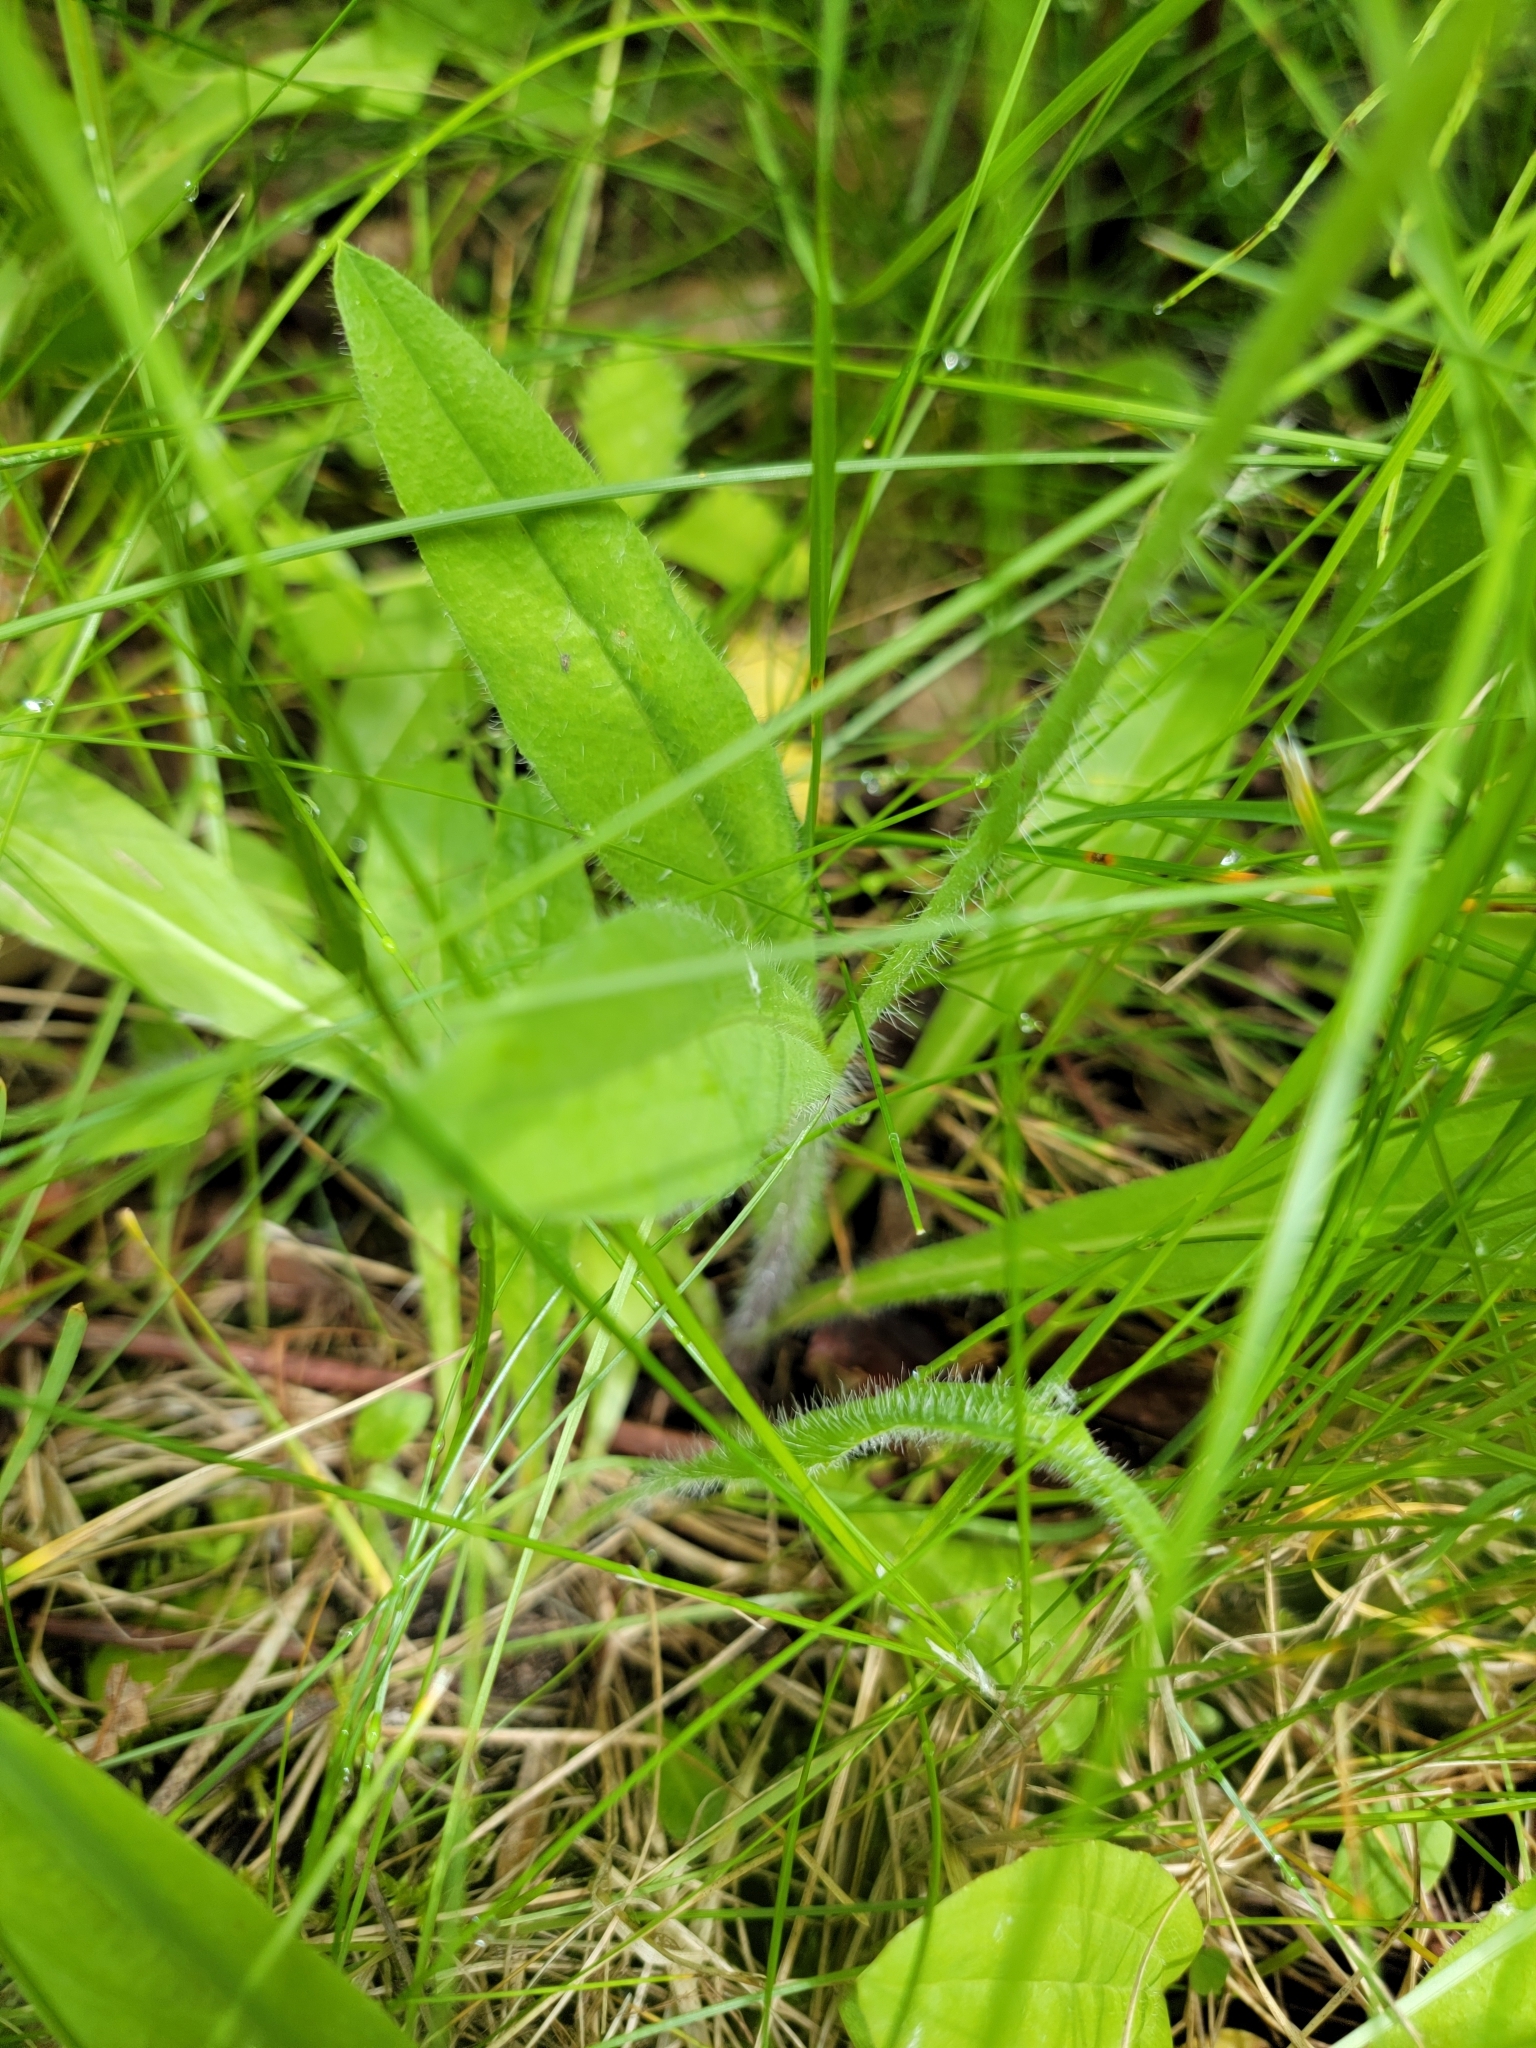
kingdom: Plantae
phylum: Tracheophyta
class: Magnoliopsida
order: Asterales
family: Asteraceae
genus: Pilosella
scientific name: Pilosella aurantiaca
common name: Fox-and-cubs
